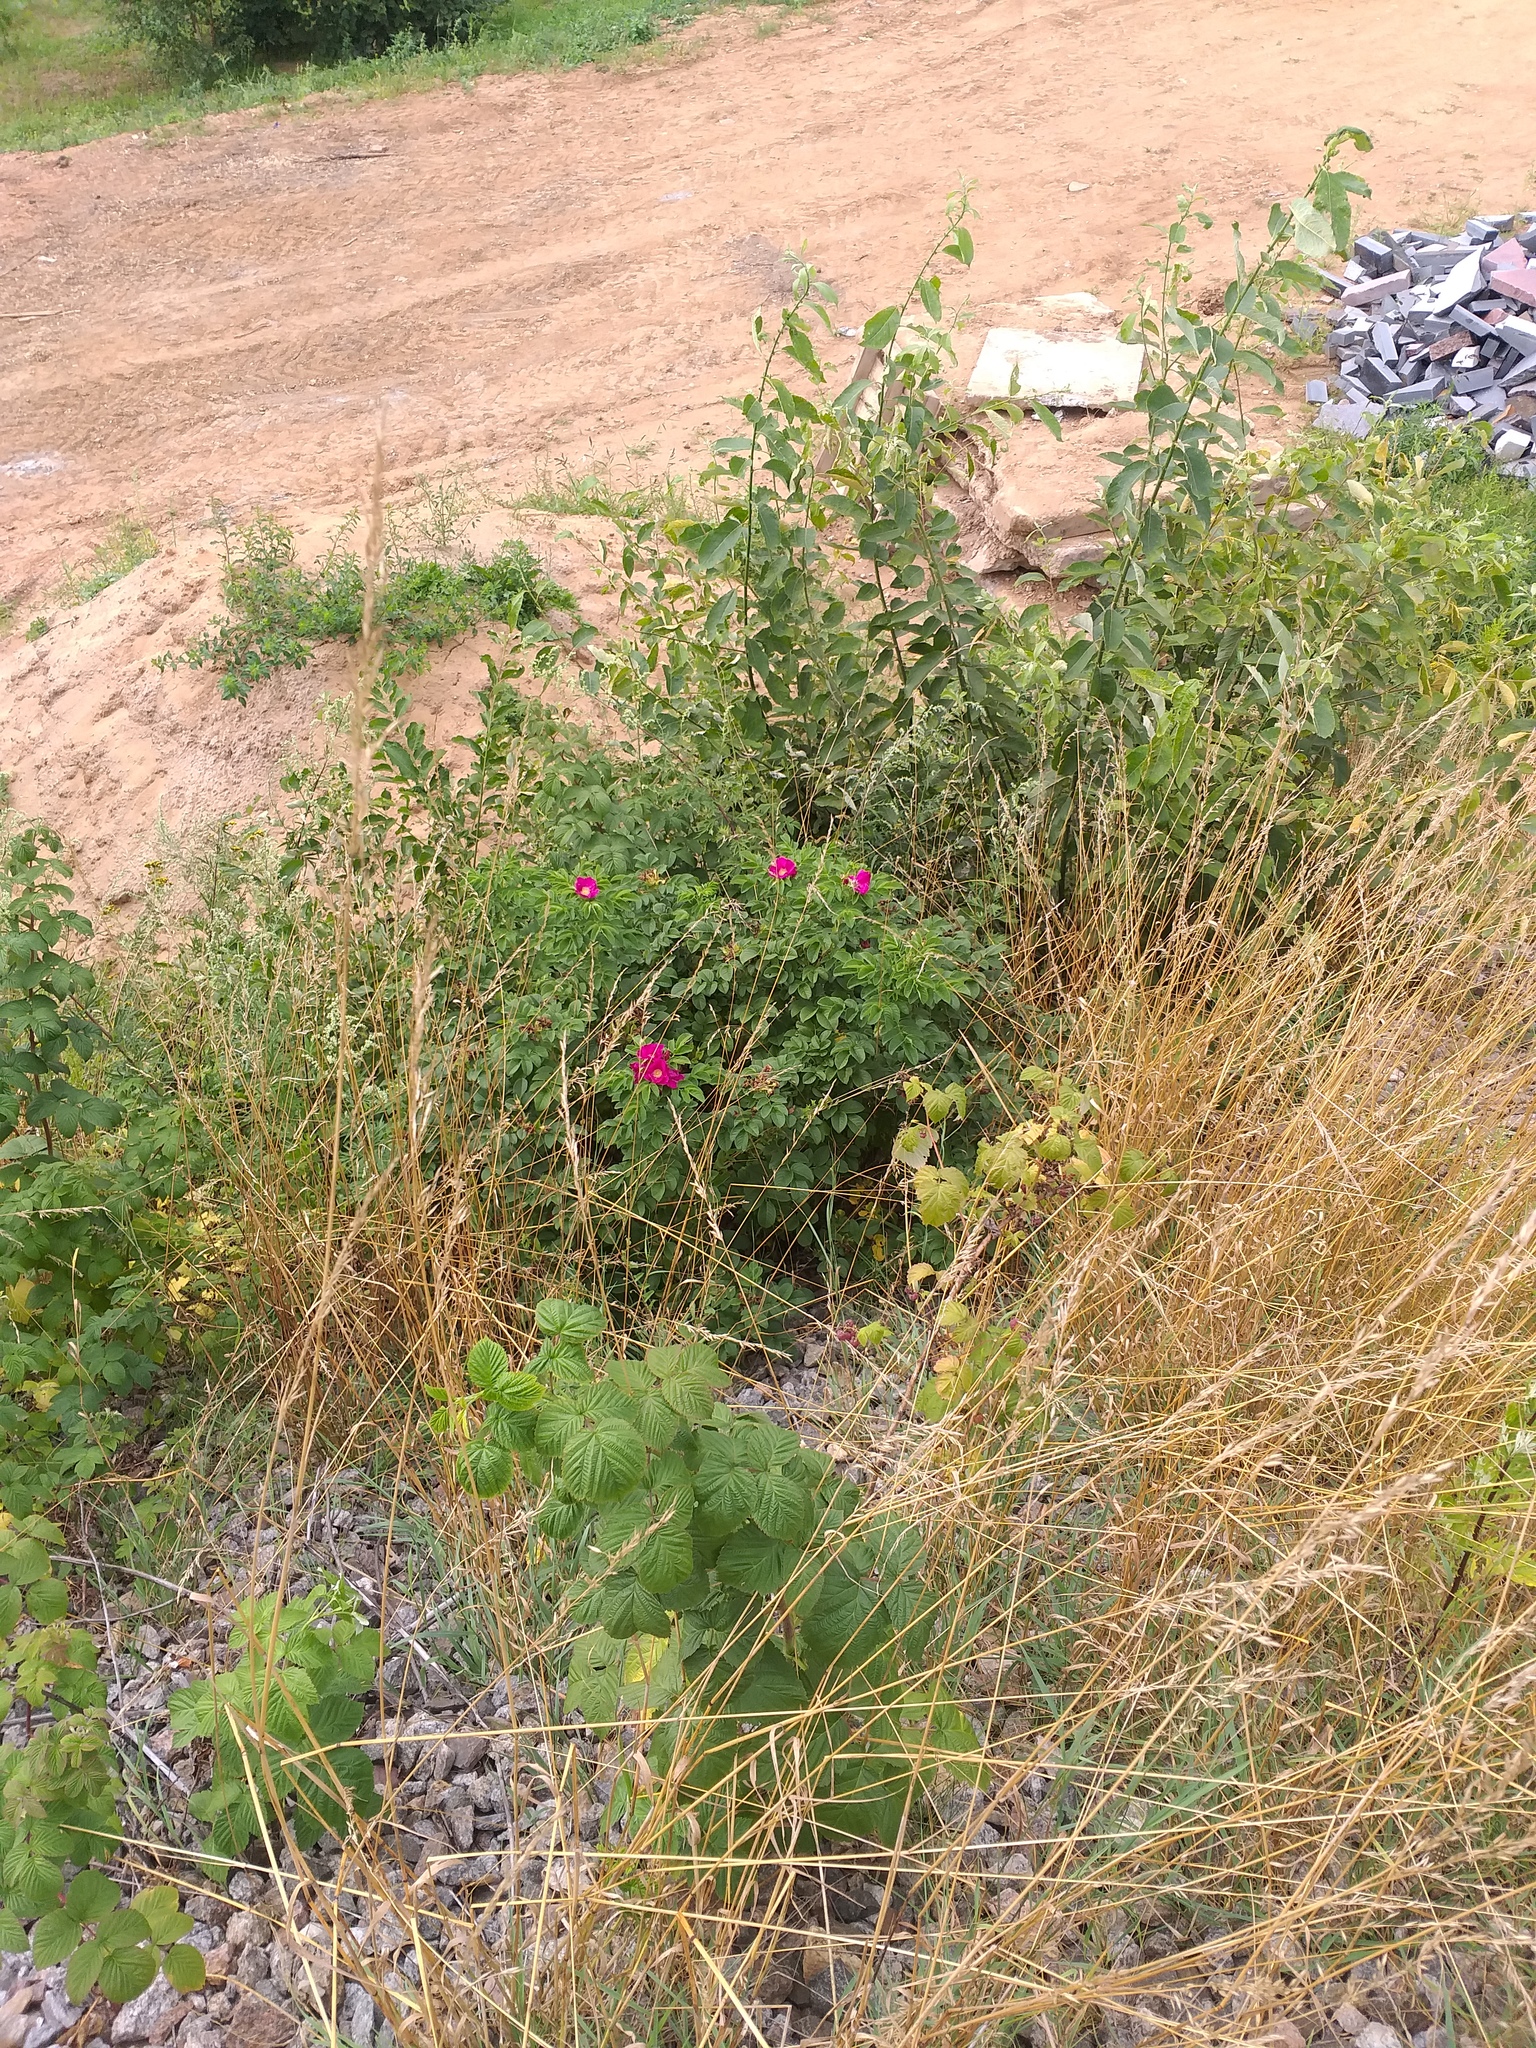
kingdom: Plantae
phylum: Tracheophyta
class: Magnoliopsida
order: Rosales
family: Rosaceae
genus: Rosa
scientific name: Rosa rugosa
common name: Japanese rose
